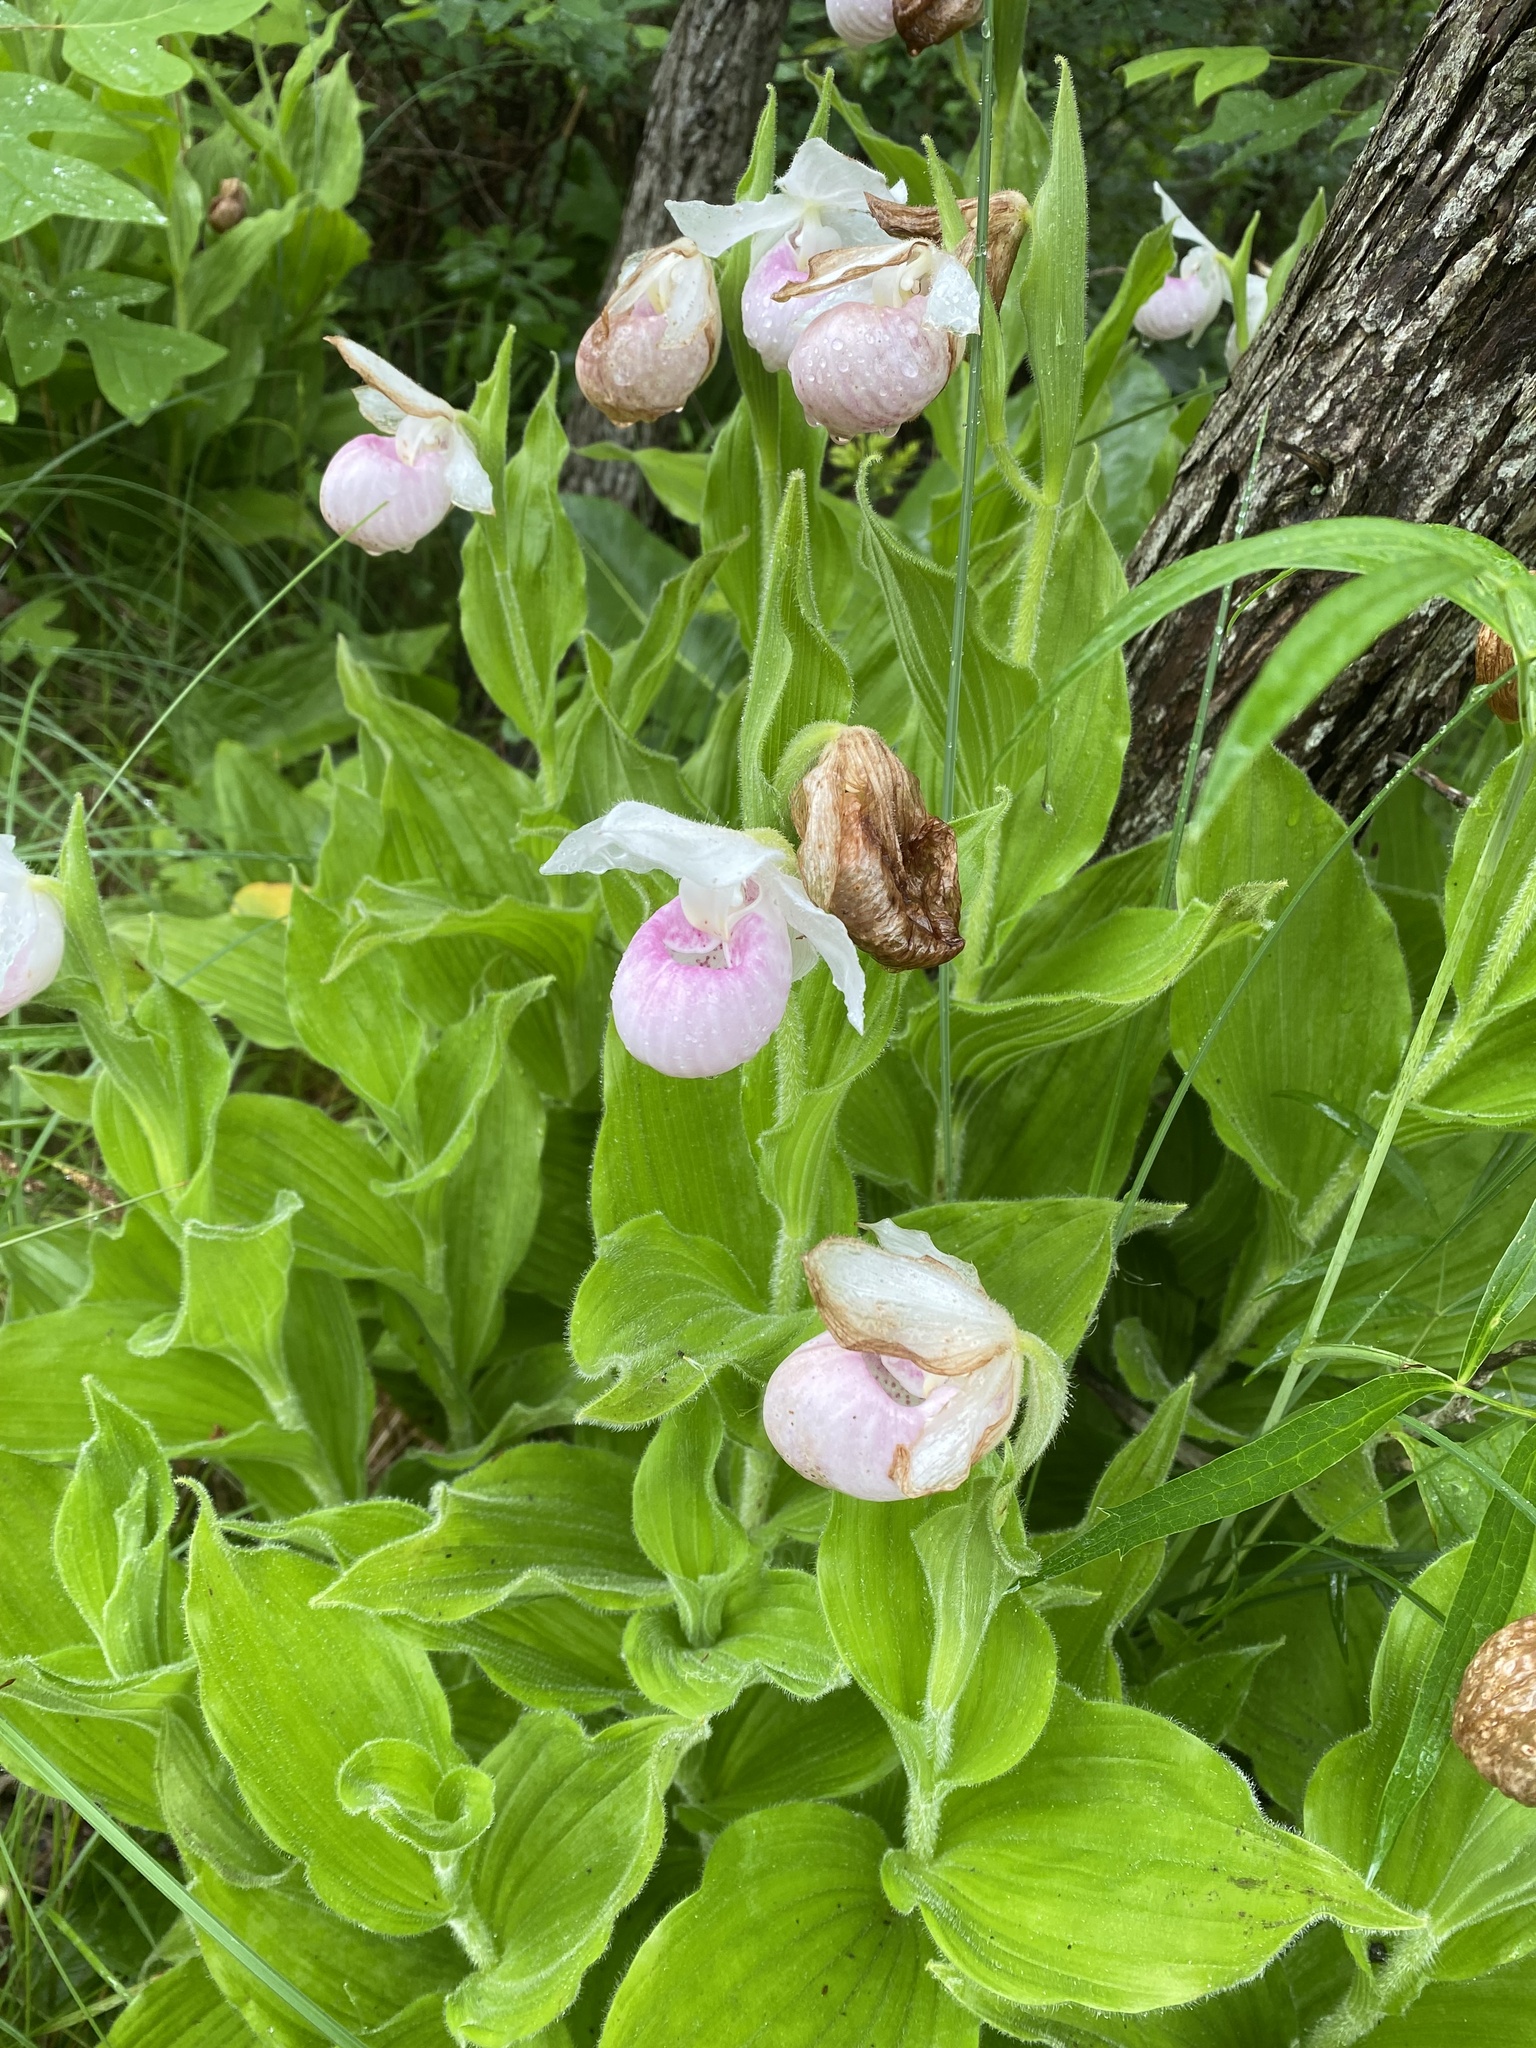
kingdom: Plantae
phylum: Tracheophyta
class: Liliopsida
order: Asparagales
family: Orchidaceae
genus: Cypripedium
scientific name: Cypripedium reginae
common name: Queen lady's-slipper
